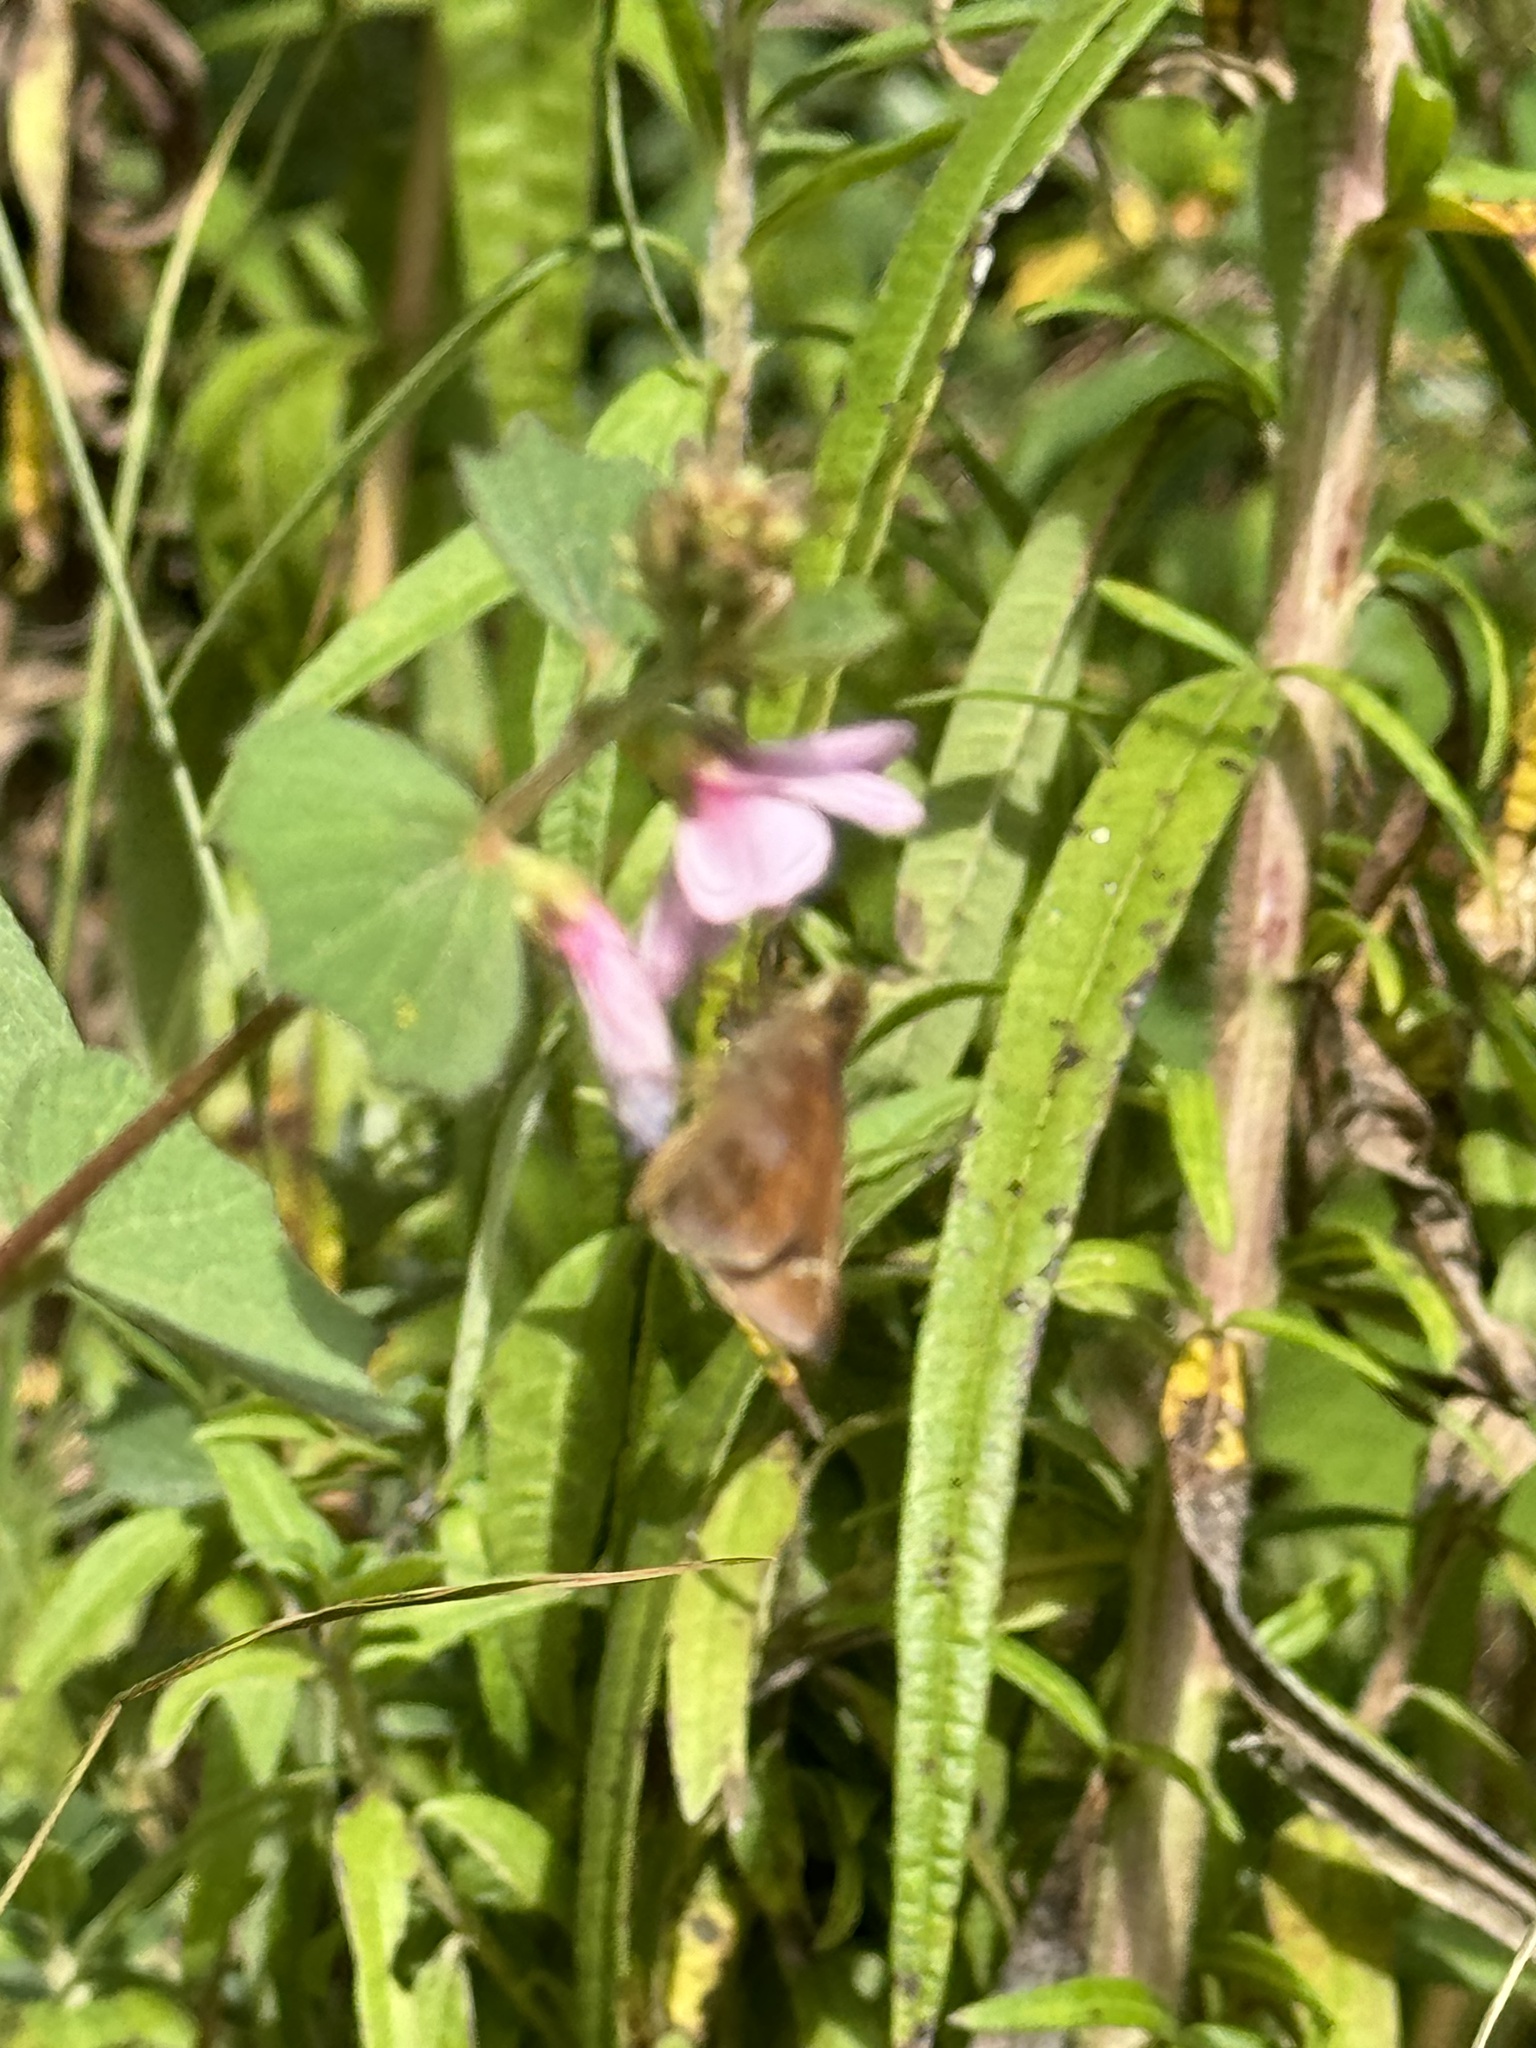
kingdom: Plantae
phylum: Tracheophyta
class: Magnoliopsida
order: Malvales
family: Malvaceae
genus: Urena
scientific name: Urena lobata
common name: Caesarweed
